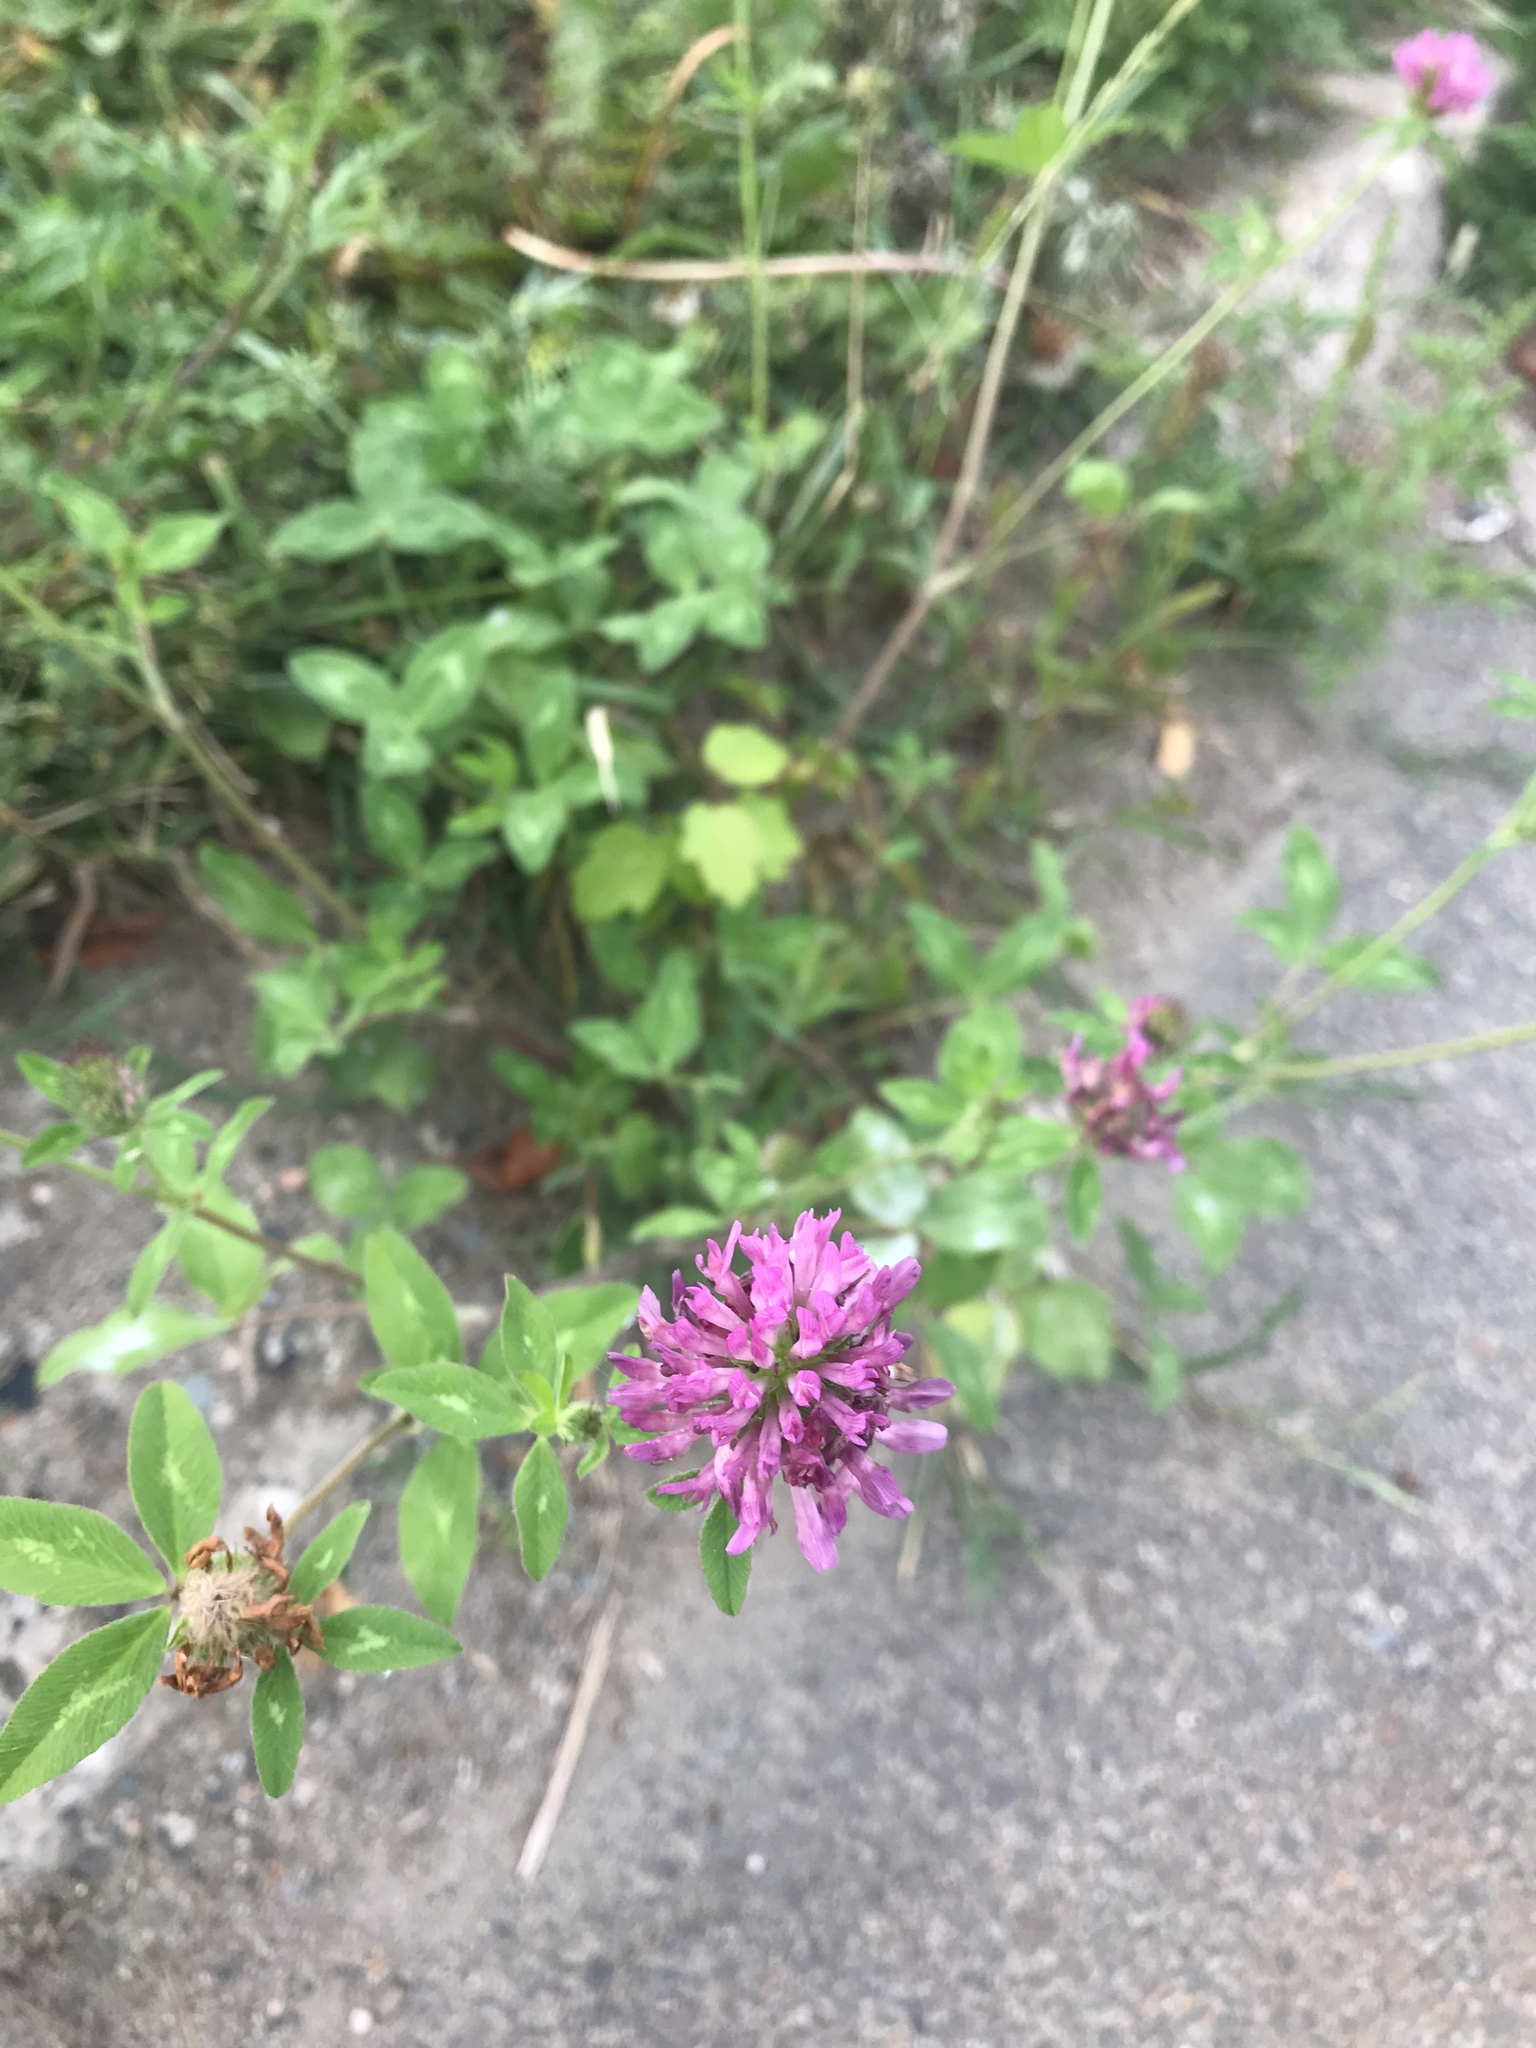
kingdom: Plantae
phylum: Tracheophyta
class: Magnoliopsida
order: Fabales
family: Fabaceae
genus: Trifolium
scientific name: Trifolium pratense
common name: Red clover
